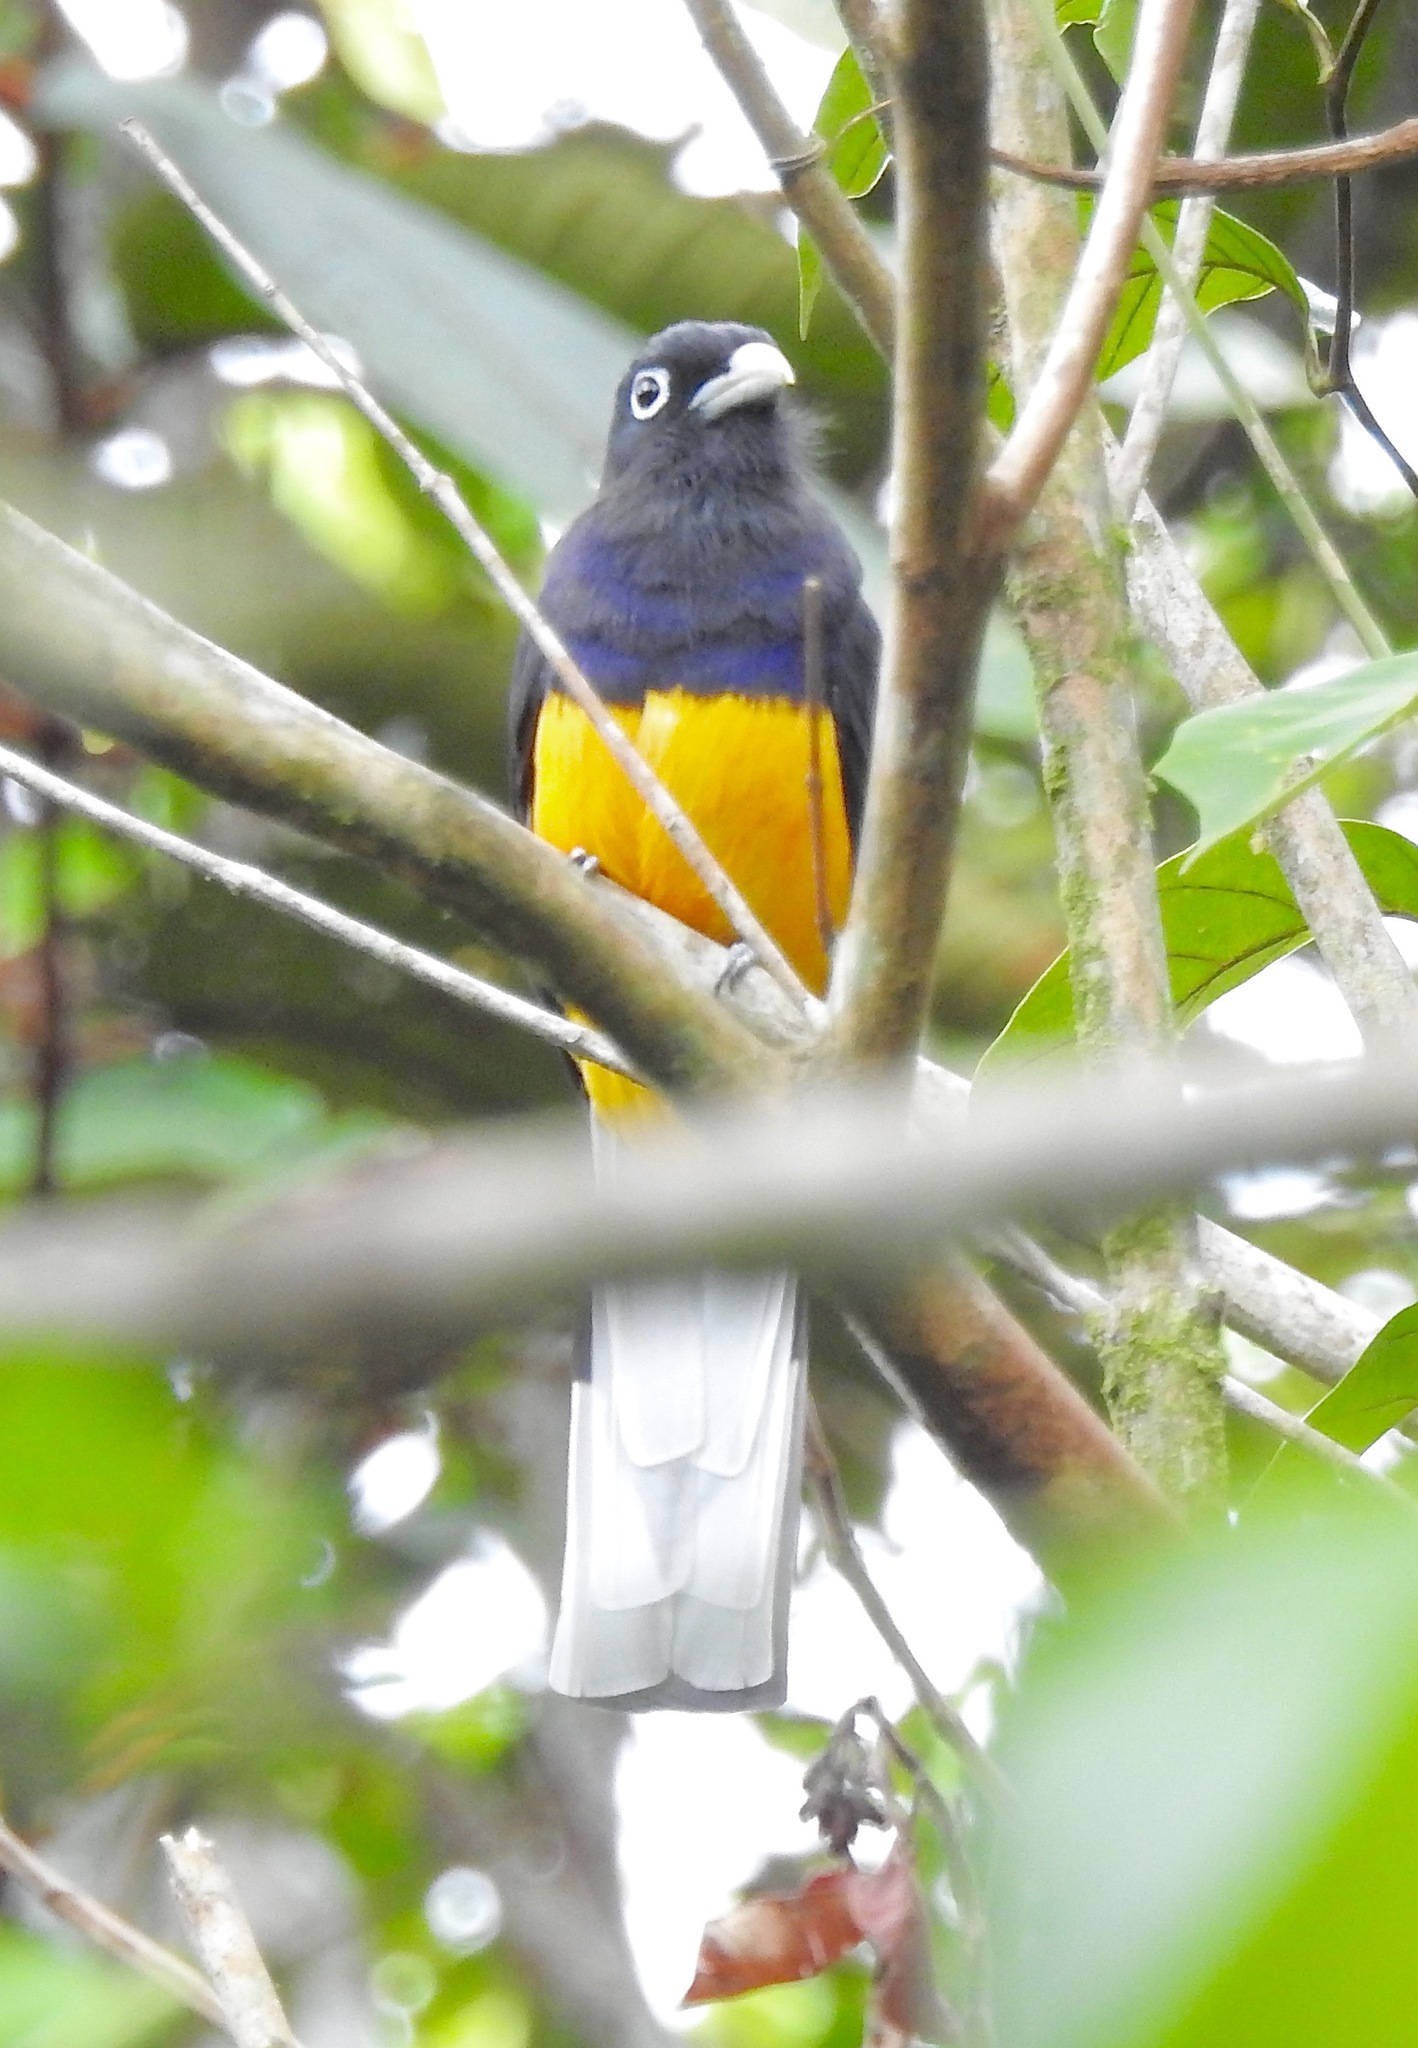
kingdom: Animalia
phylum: Chordata
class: Aves
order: Trogoniformes
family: Trogonidae
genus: Trogon
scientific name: Trogon chionurus
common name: White-tailed trogon
